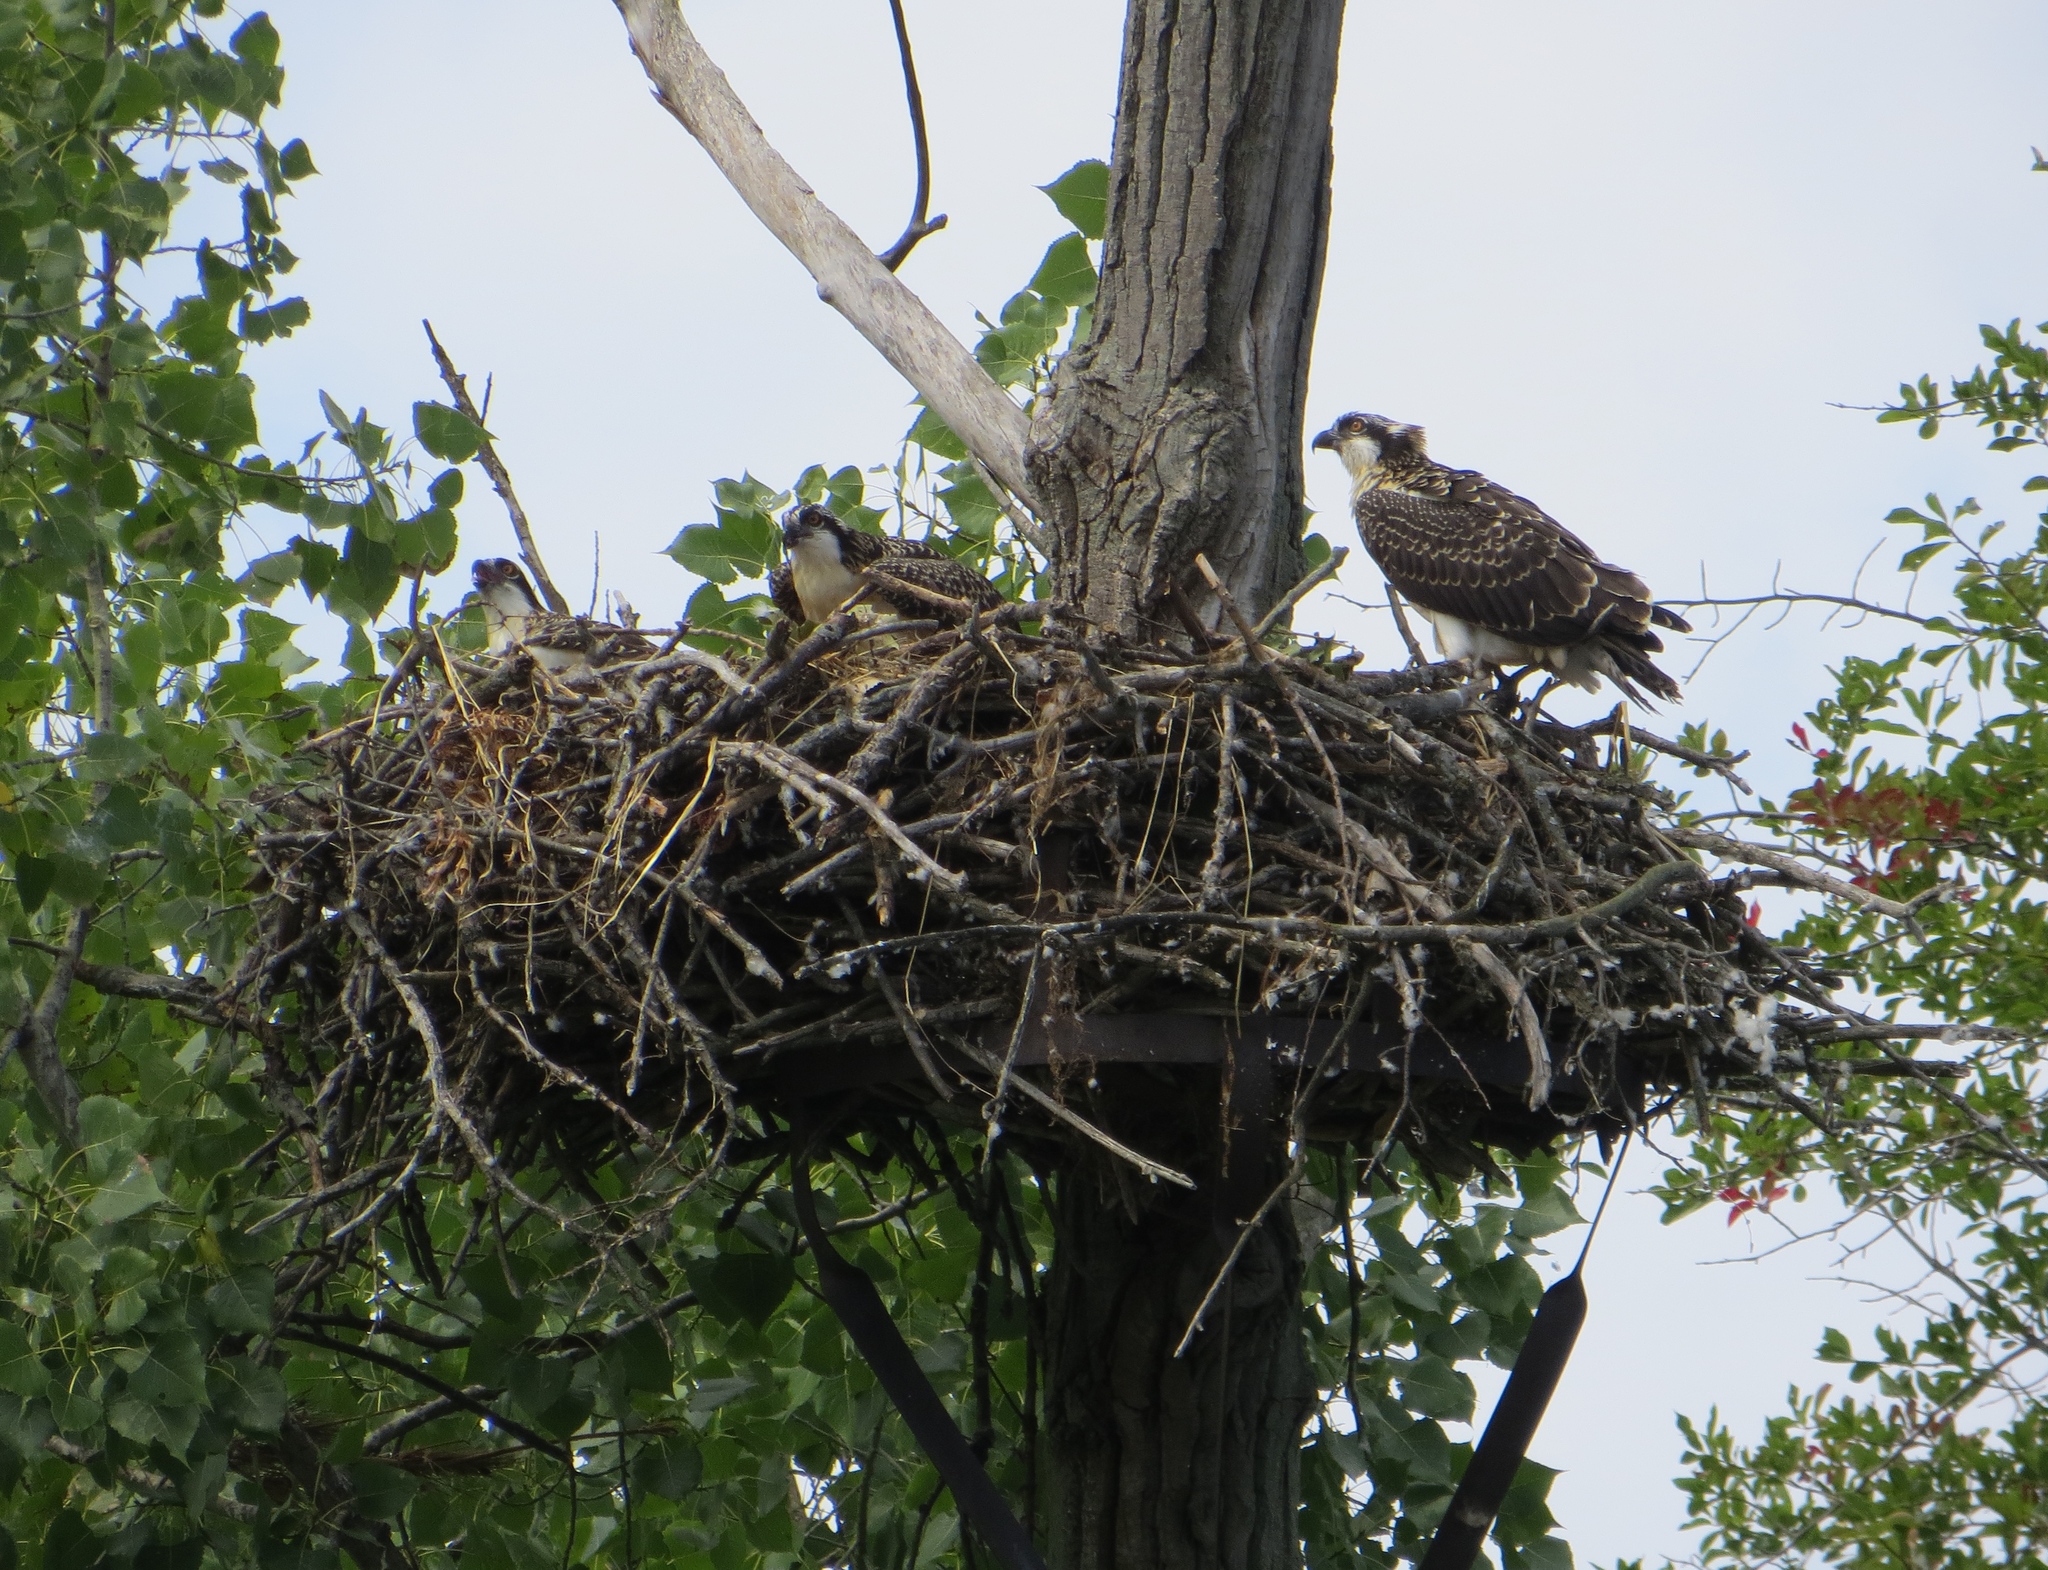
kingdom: Animalia
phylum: Chordata
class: Aves
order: Accipitriformes
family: Pandionidae
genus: Pandion
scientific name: Pandion haliaetus
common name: Osprey
